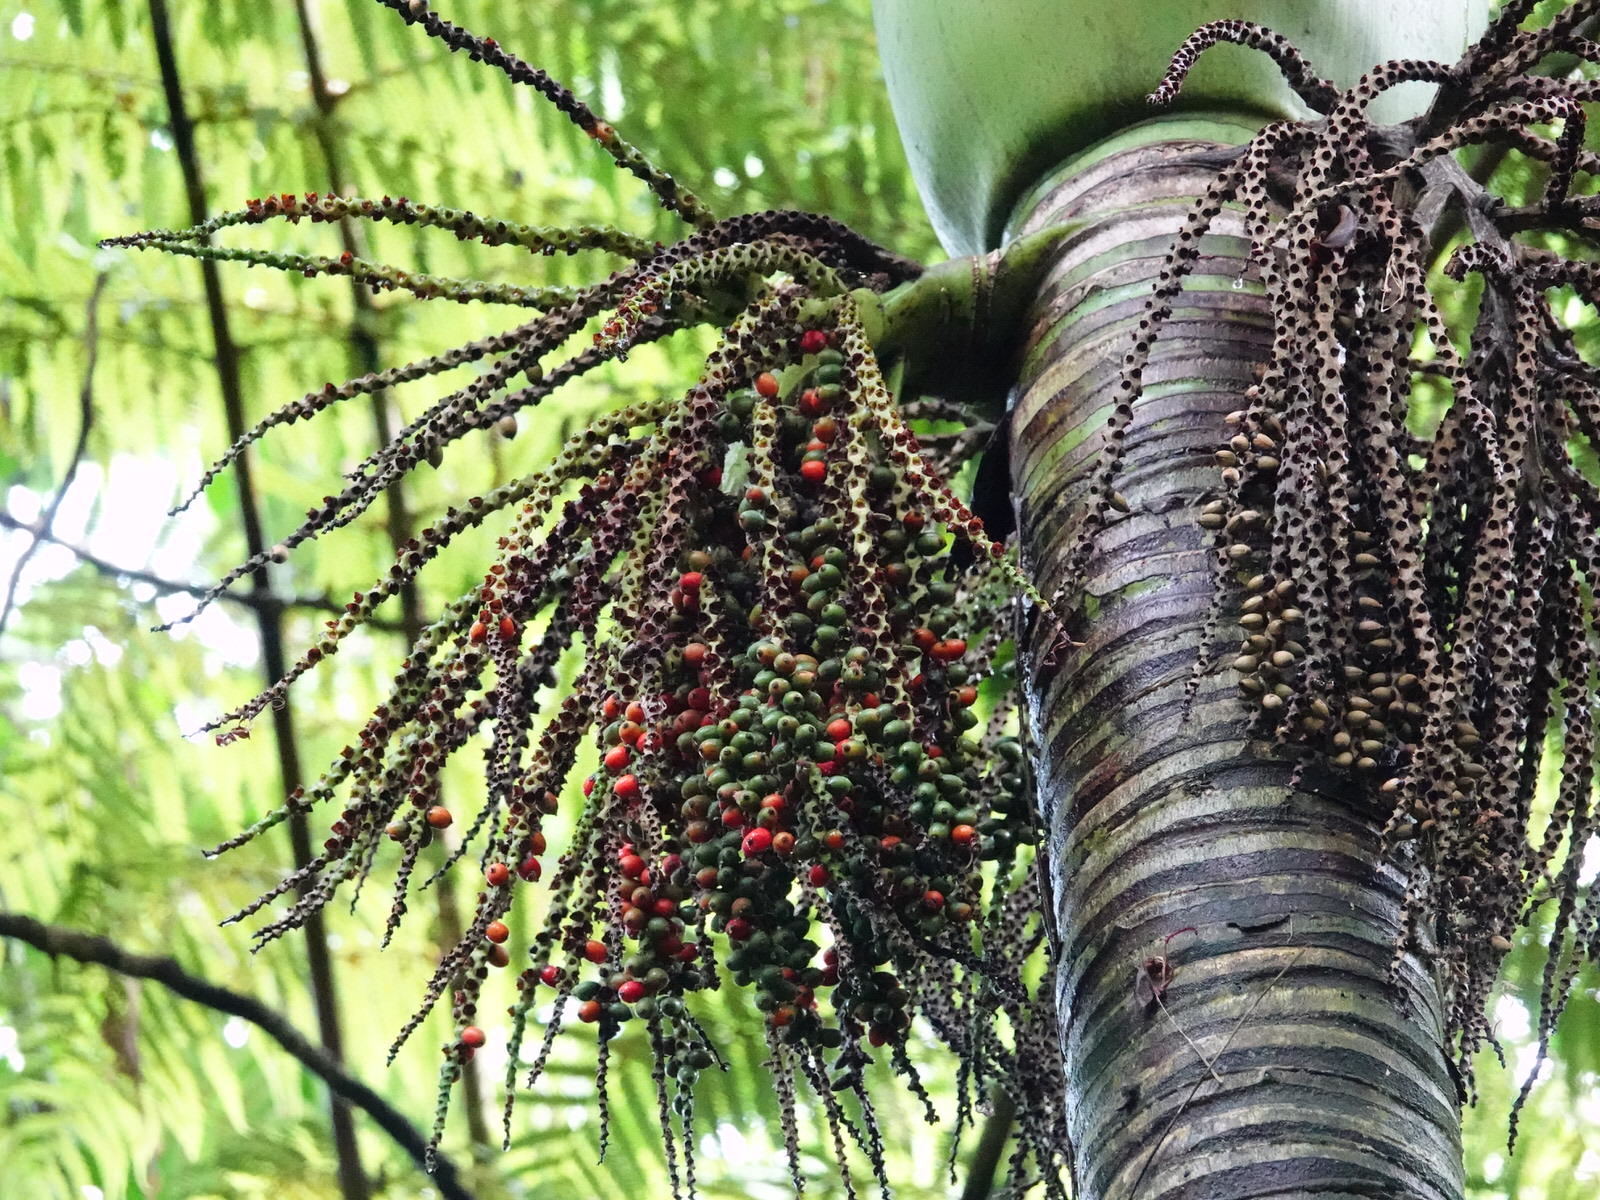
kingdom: Plantae
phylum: Tracheophyta
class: Liliopsida
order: Arecales
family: Arecaceae
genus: Rhopalostylis
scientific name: Rhopalostylis sapida
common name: Feather-duster palm
